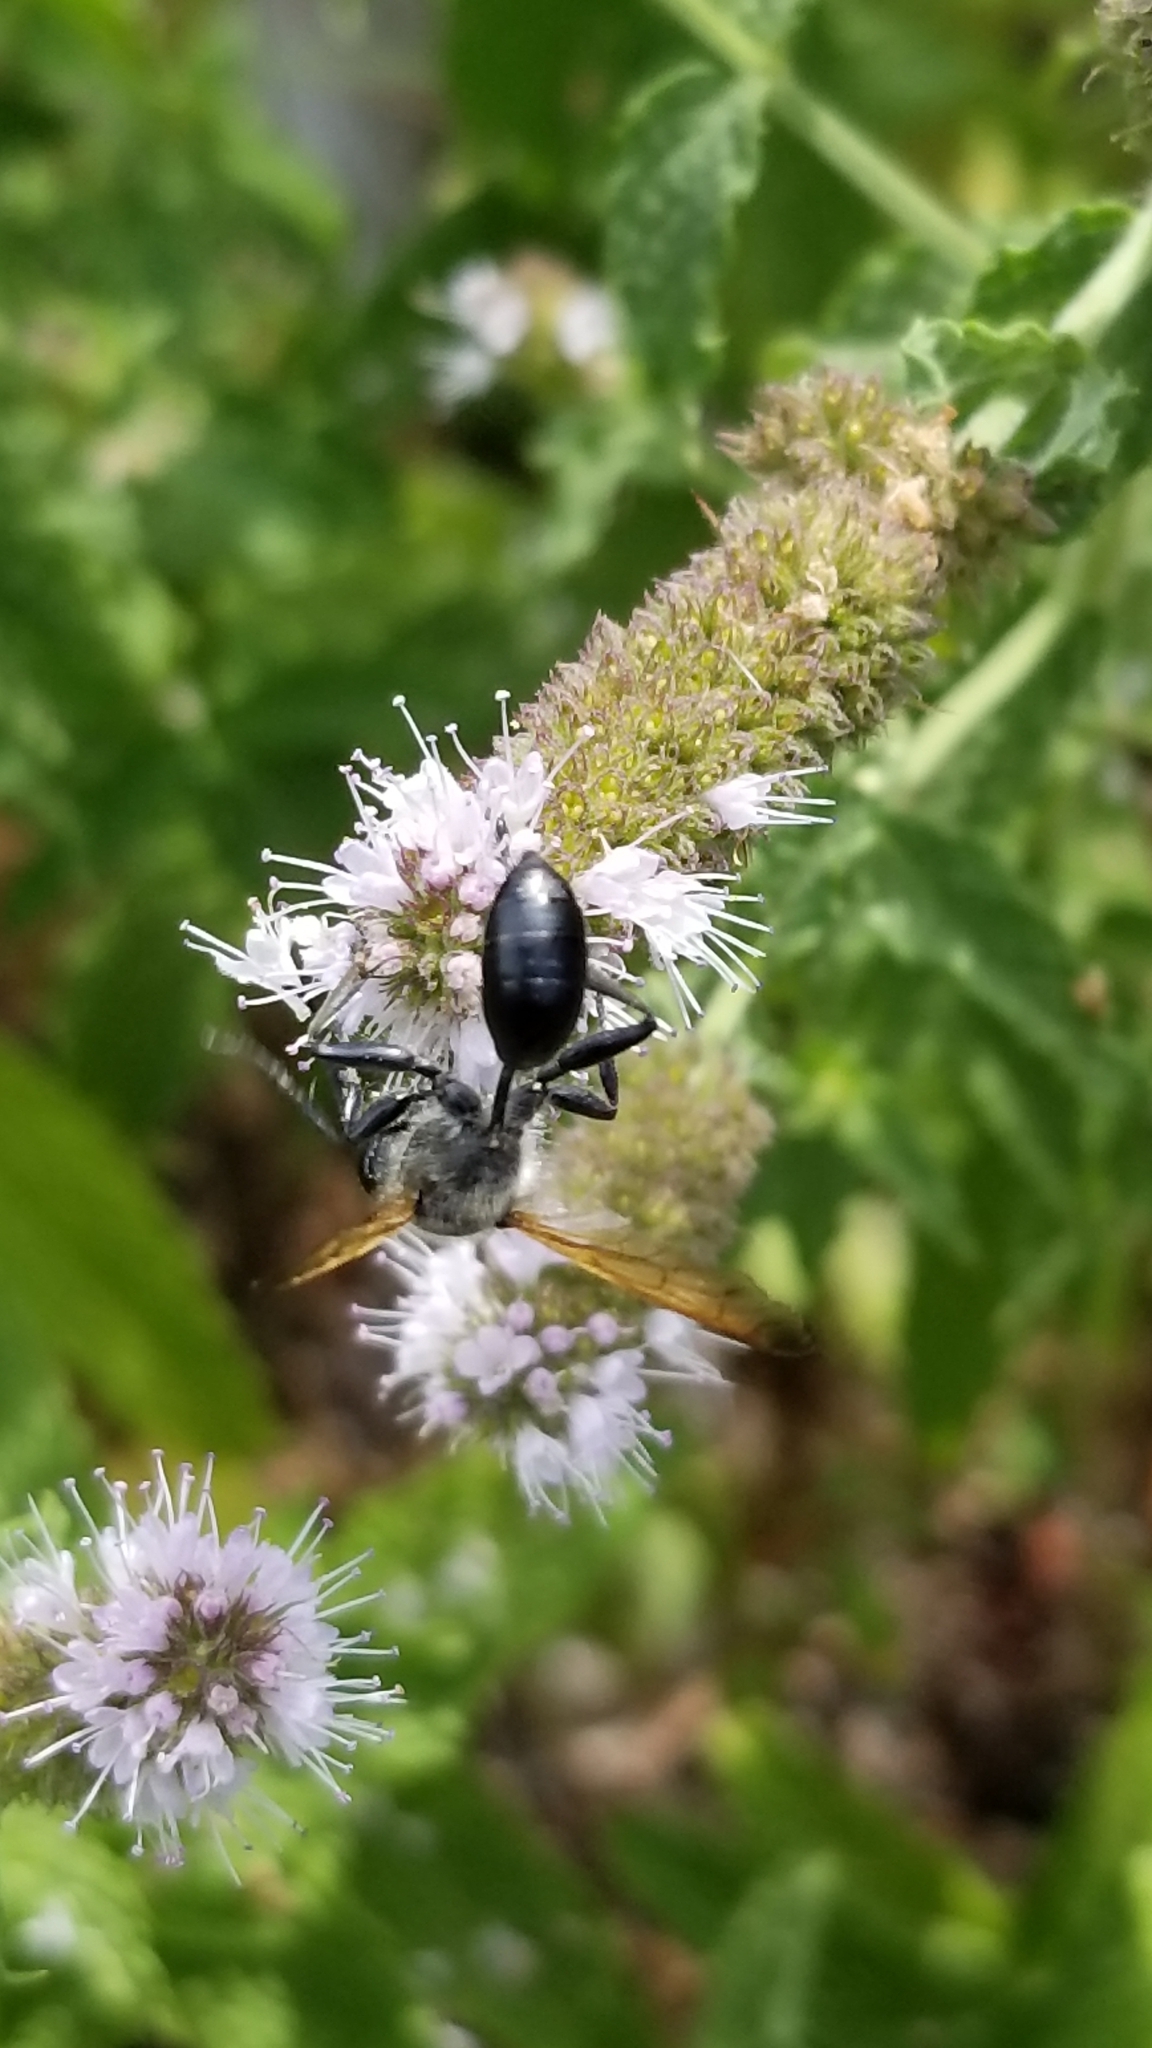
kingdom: Animalia
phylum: Arthropoda
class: Insecta
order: Hymenoptera
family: Sphecidae
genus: Isodontia
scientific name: Isodontia mexicana
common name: Mud dauber
